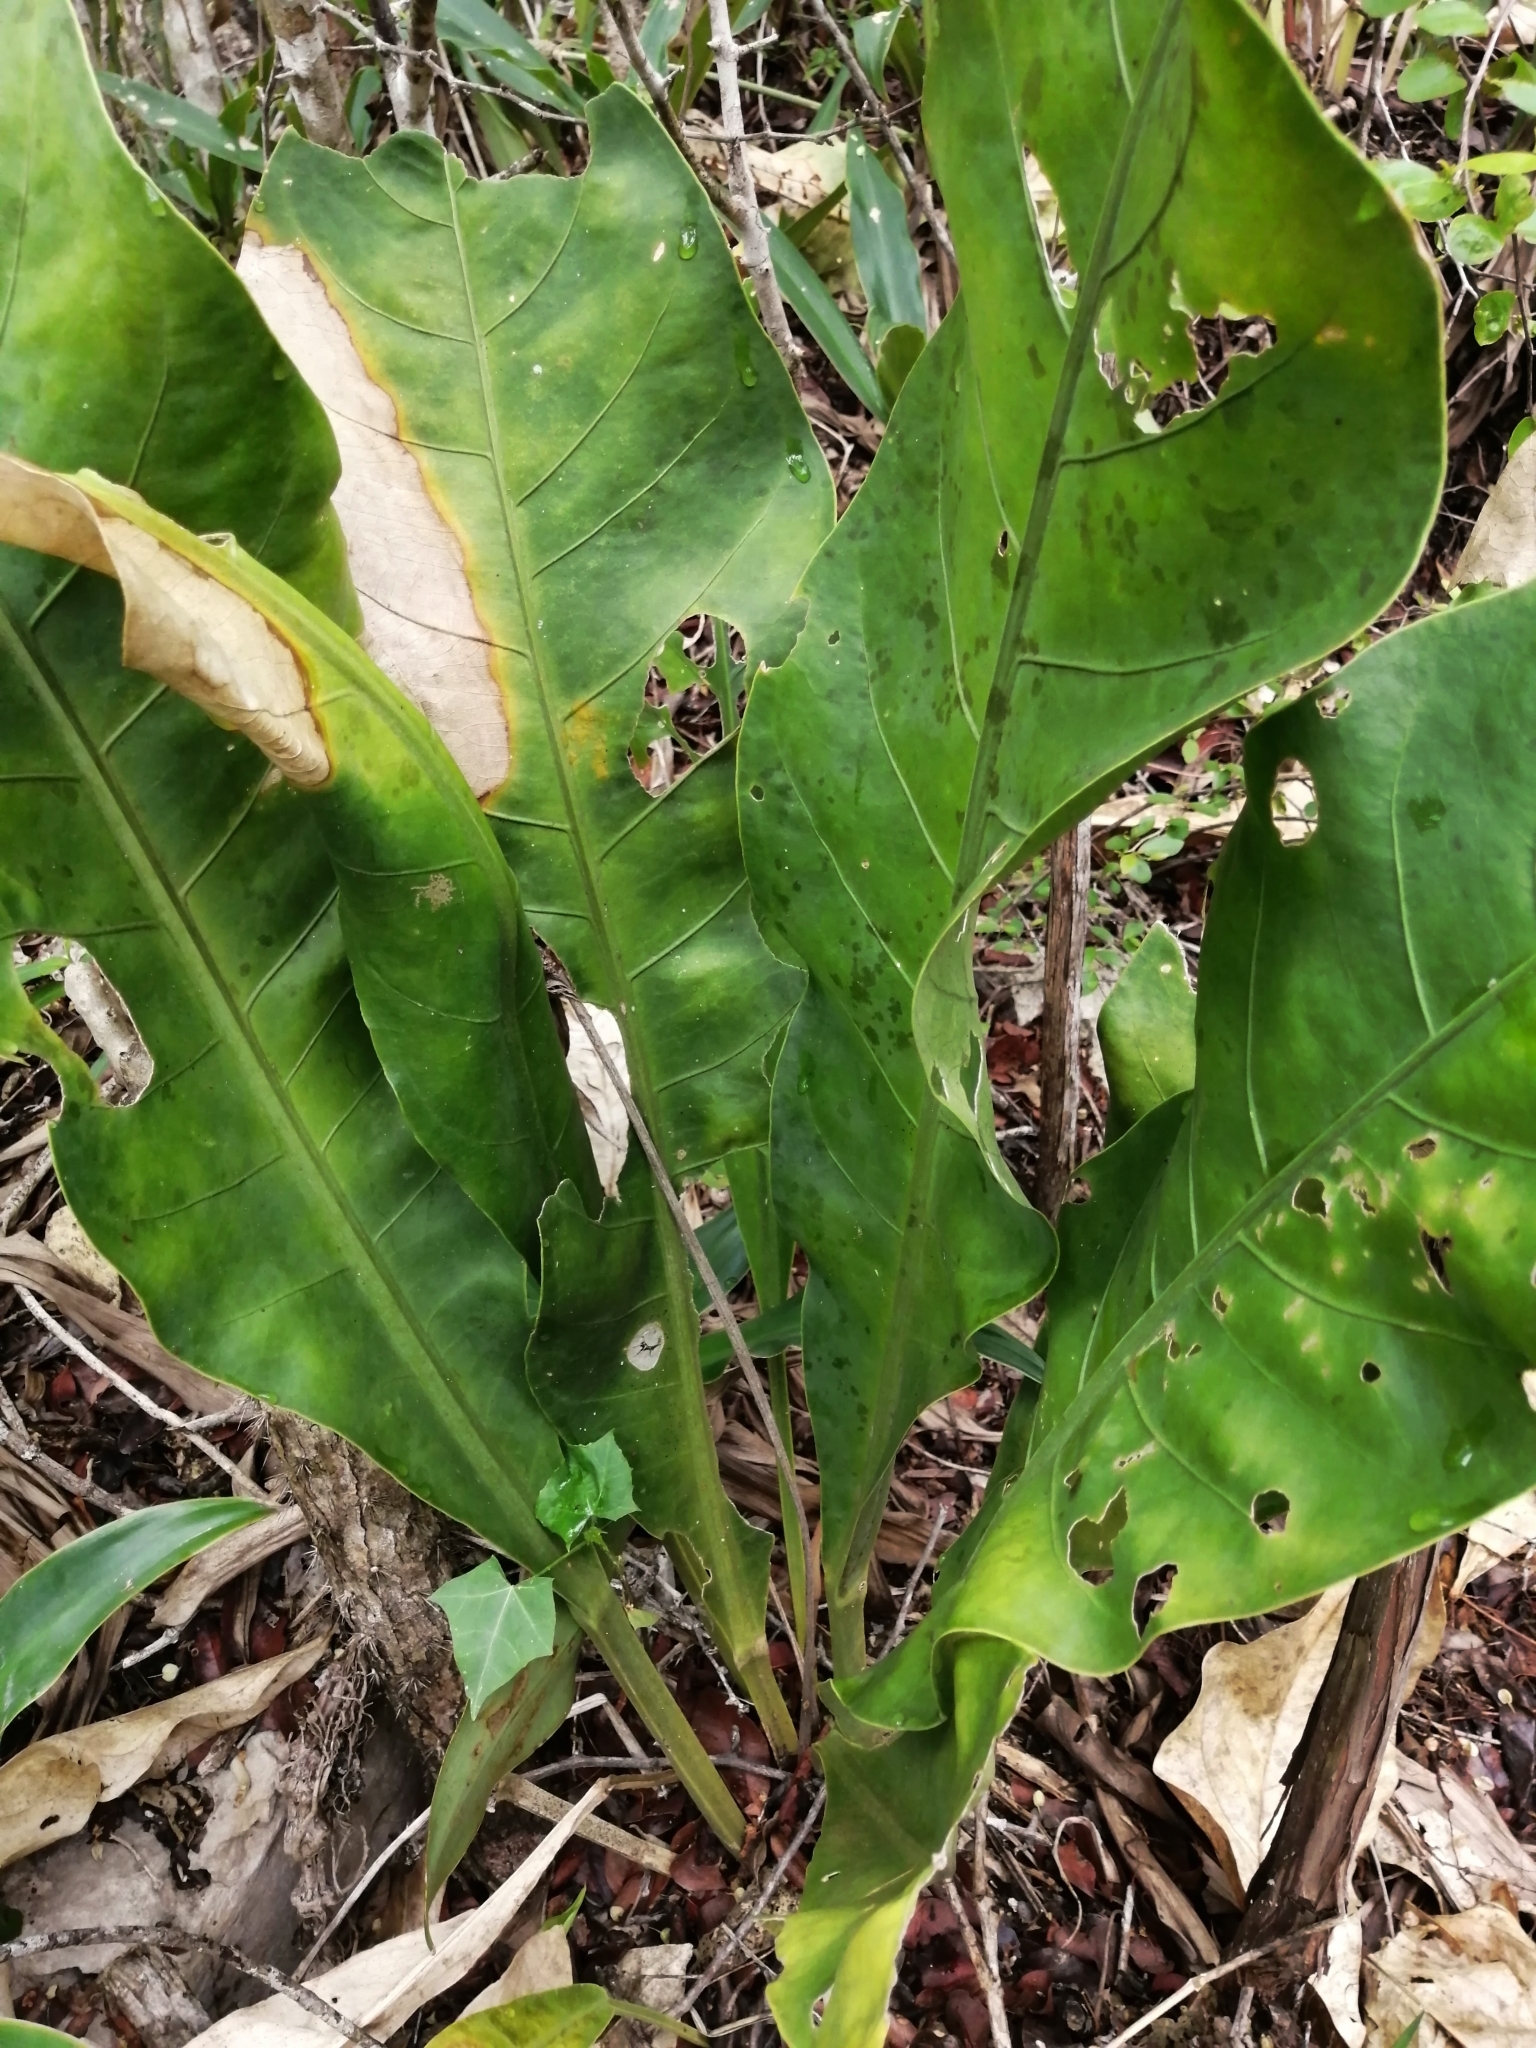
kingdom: Plantae
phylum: Tracheophyta
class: Liliopsida
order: Alismatales
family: Araceae
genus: Anthurium
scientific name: Anthurium schlechtendalii
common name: Laceleaf
